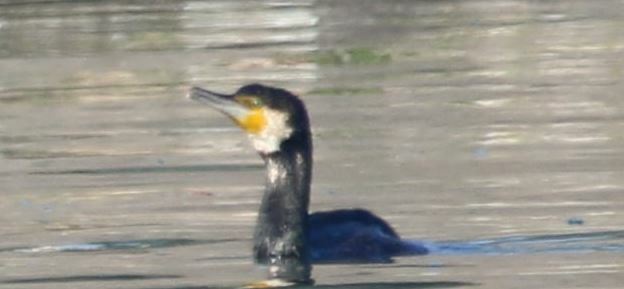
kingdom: Animalia
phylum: Chordata
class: Aves
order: Suliformes
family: Phalacrocoracidae
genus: Phalacrocorax
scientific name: Phalacrocorax carbo
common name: Great cormorant
